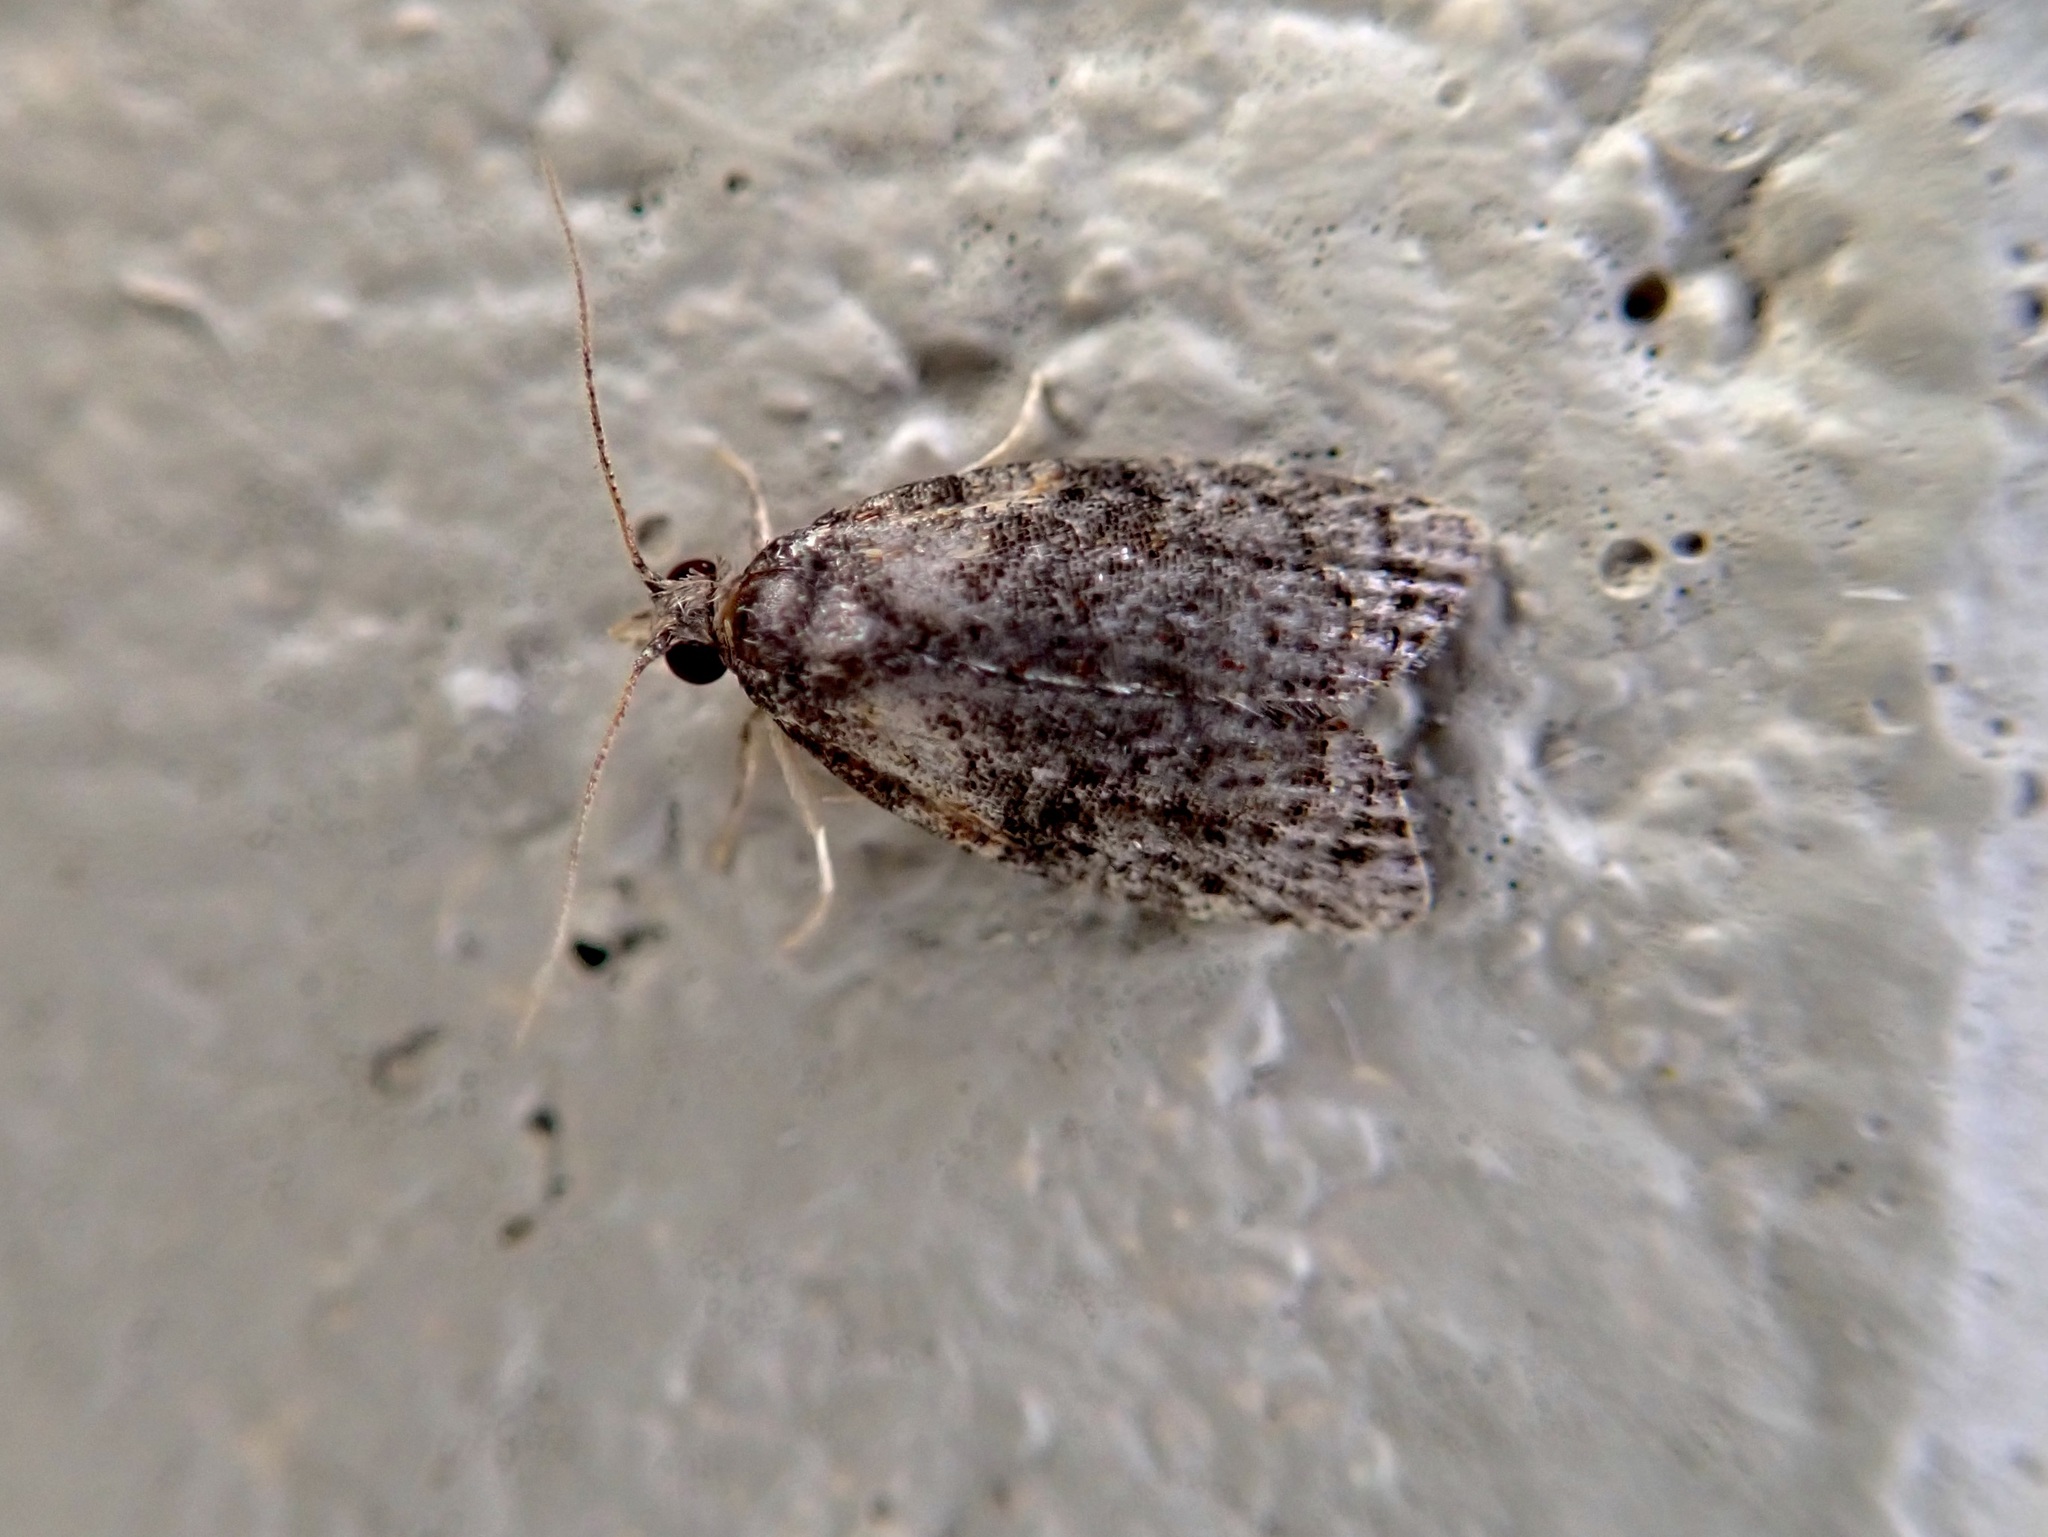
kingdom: Animalia
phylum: Arthropoda
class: Insecta
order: Lepidoptera
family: Tortricidae
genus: Capua
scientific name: Capua intractana
